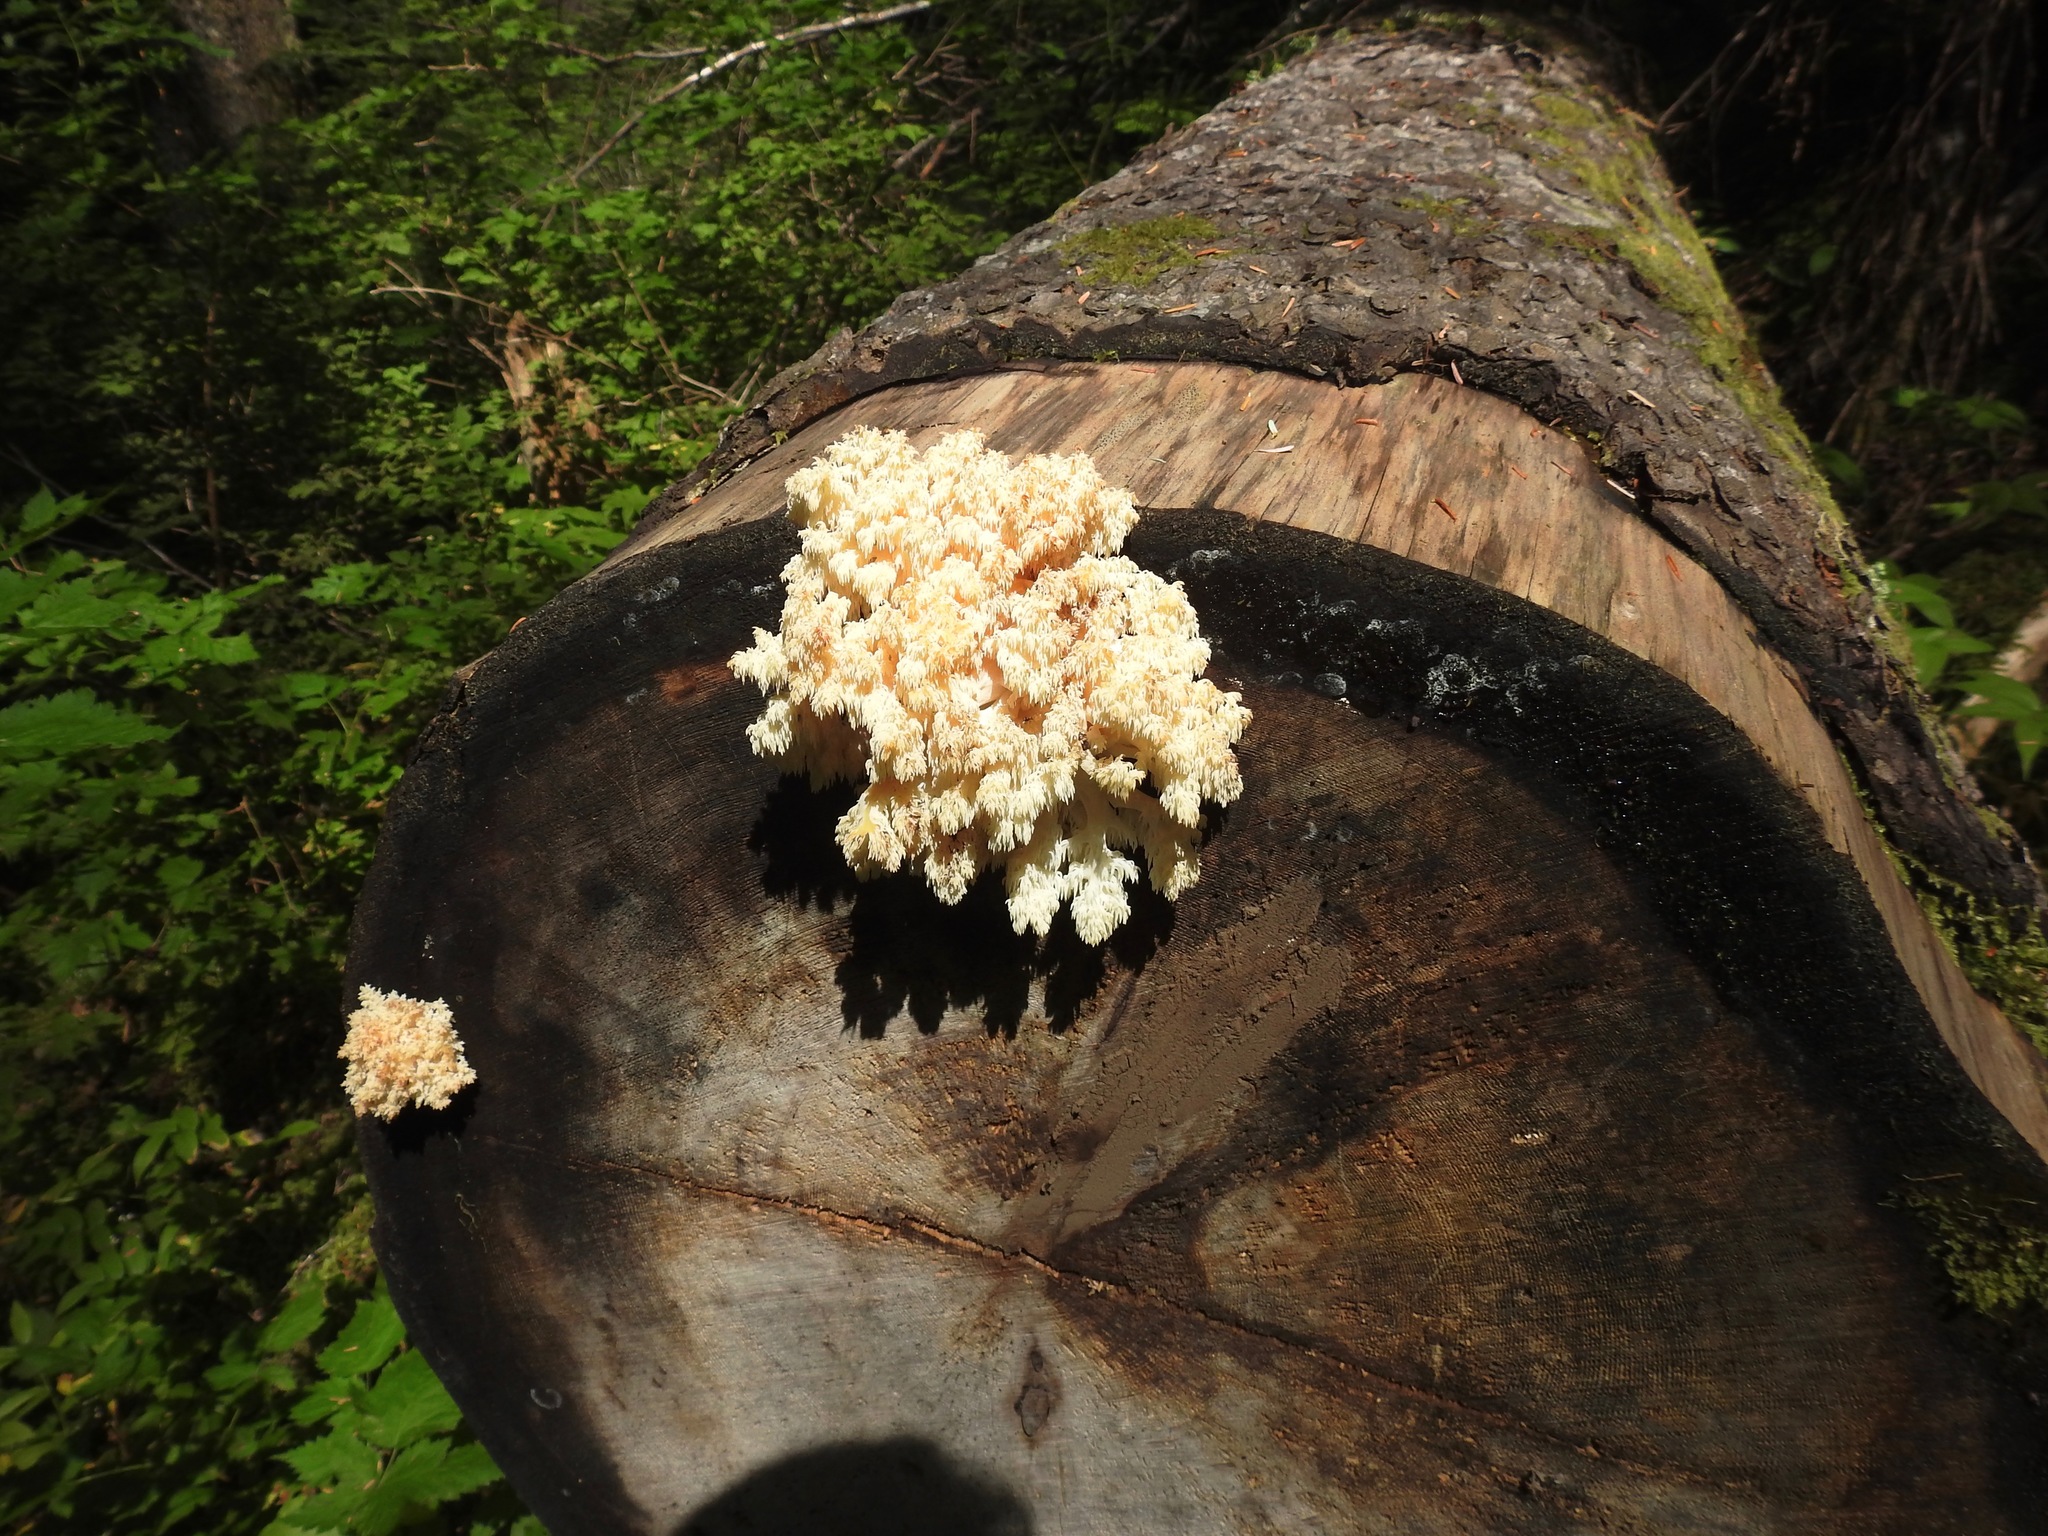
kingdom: Fungi
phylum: Basidiomycota
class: Agaricomycetes
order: Russulales
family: Hericiaceae
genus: Hericium
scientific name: Hericium abietis
